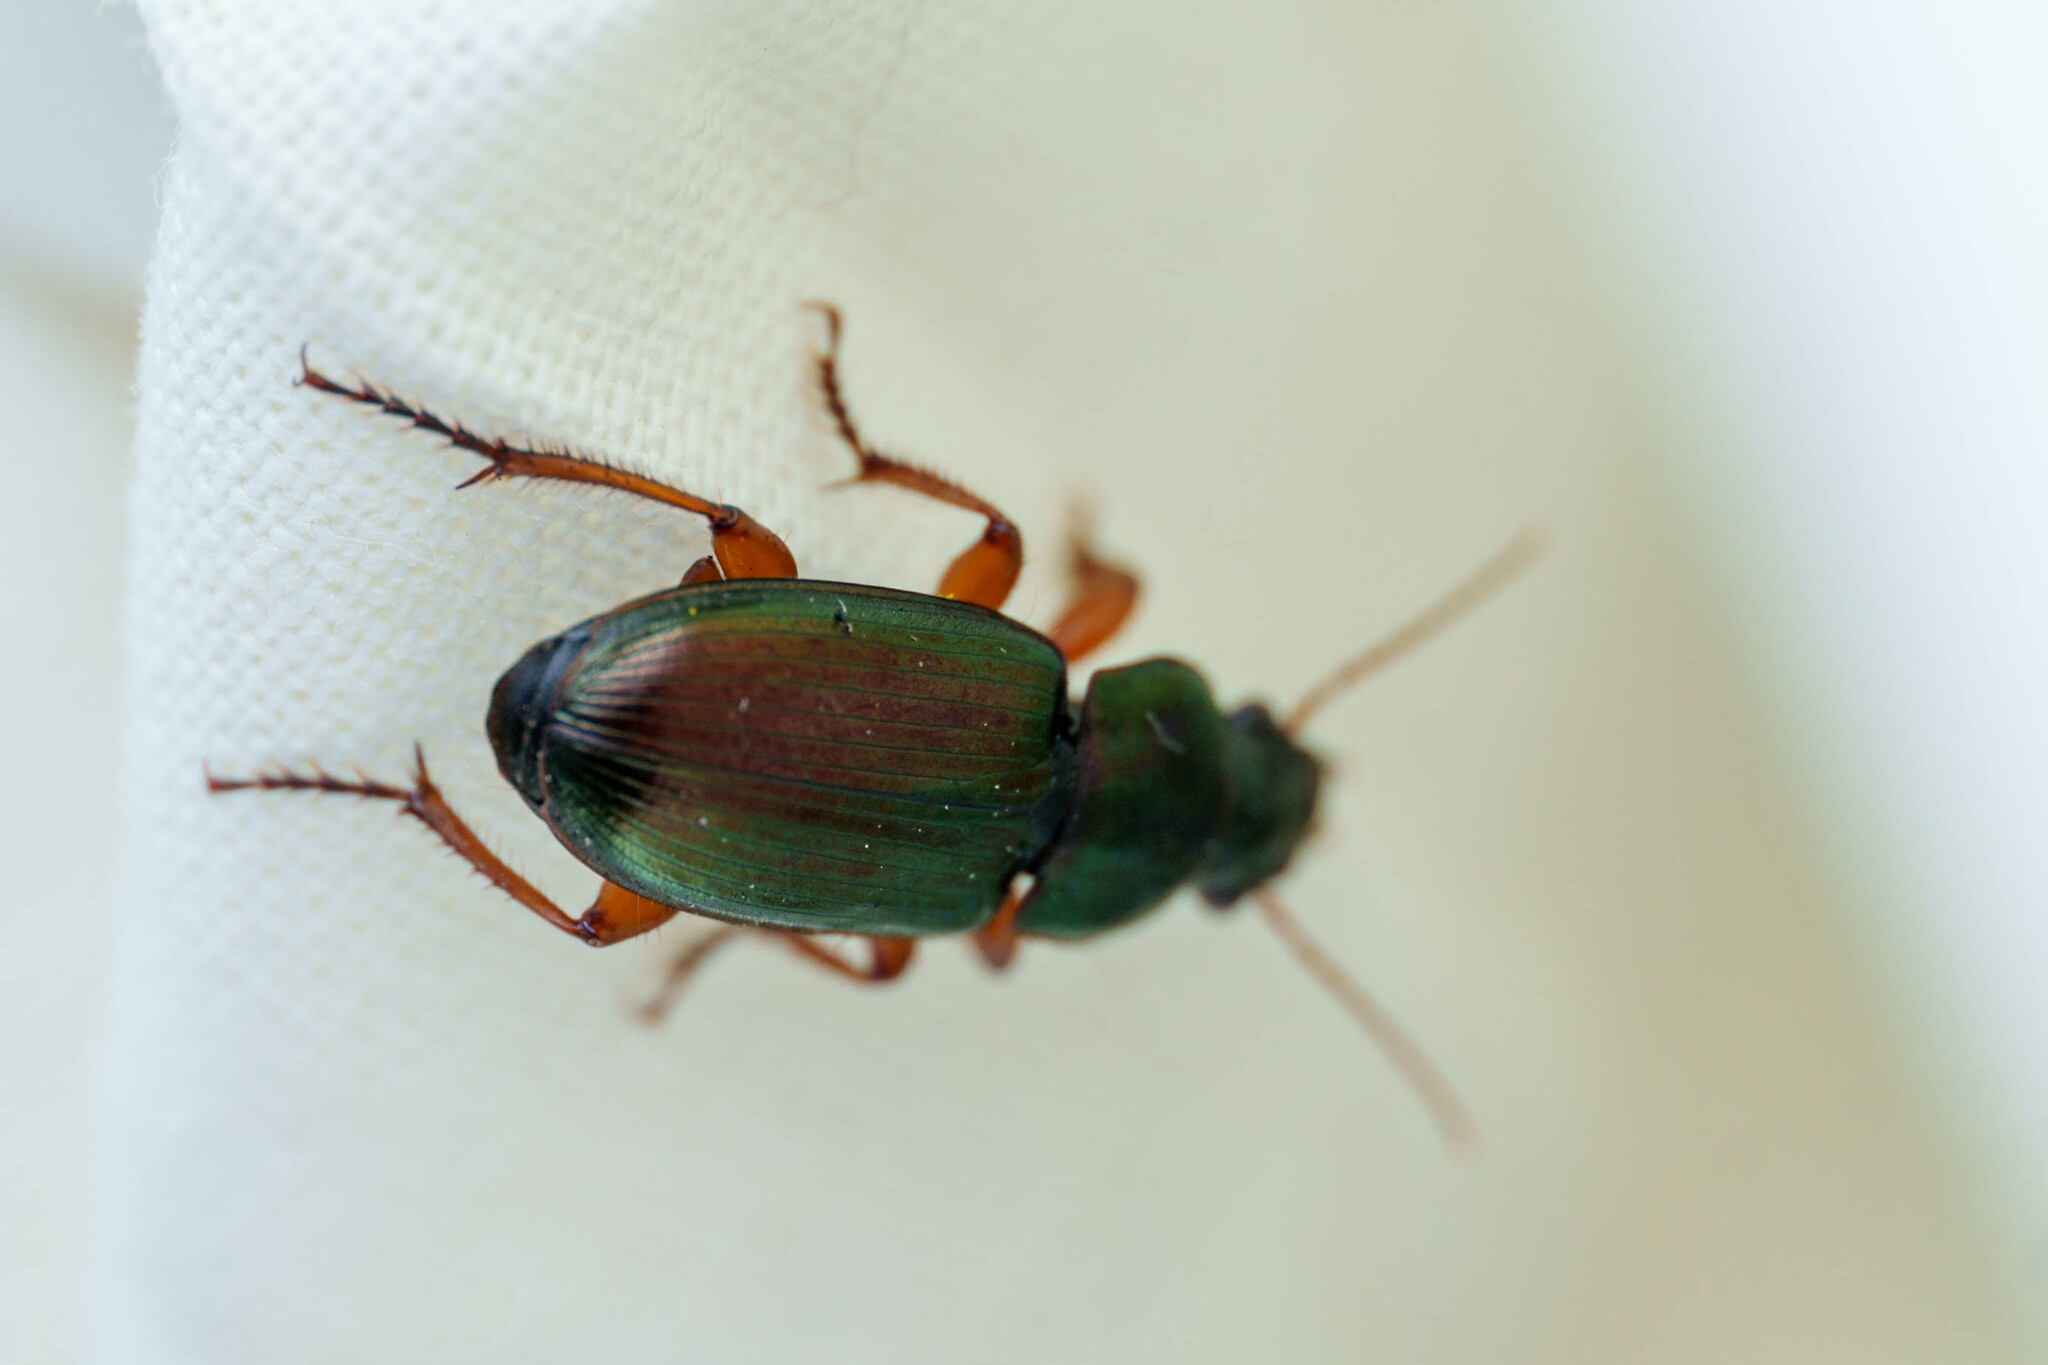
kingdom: Animalia
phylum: Arthropoda
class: Insecta
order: Coleoptera
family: Carabidae
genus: Harpalus
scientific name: Harpalus affinis
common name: Polychrome harp ground beetle
